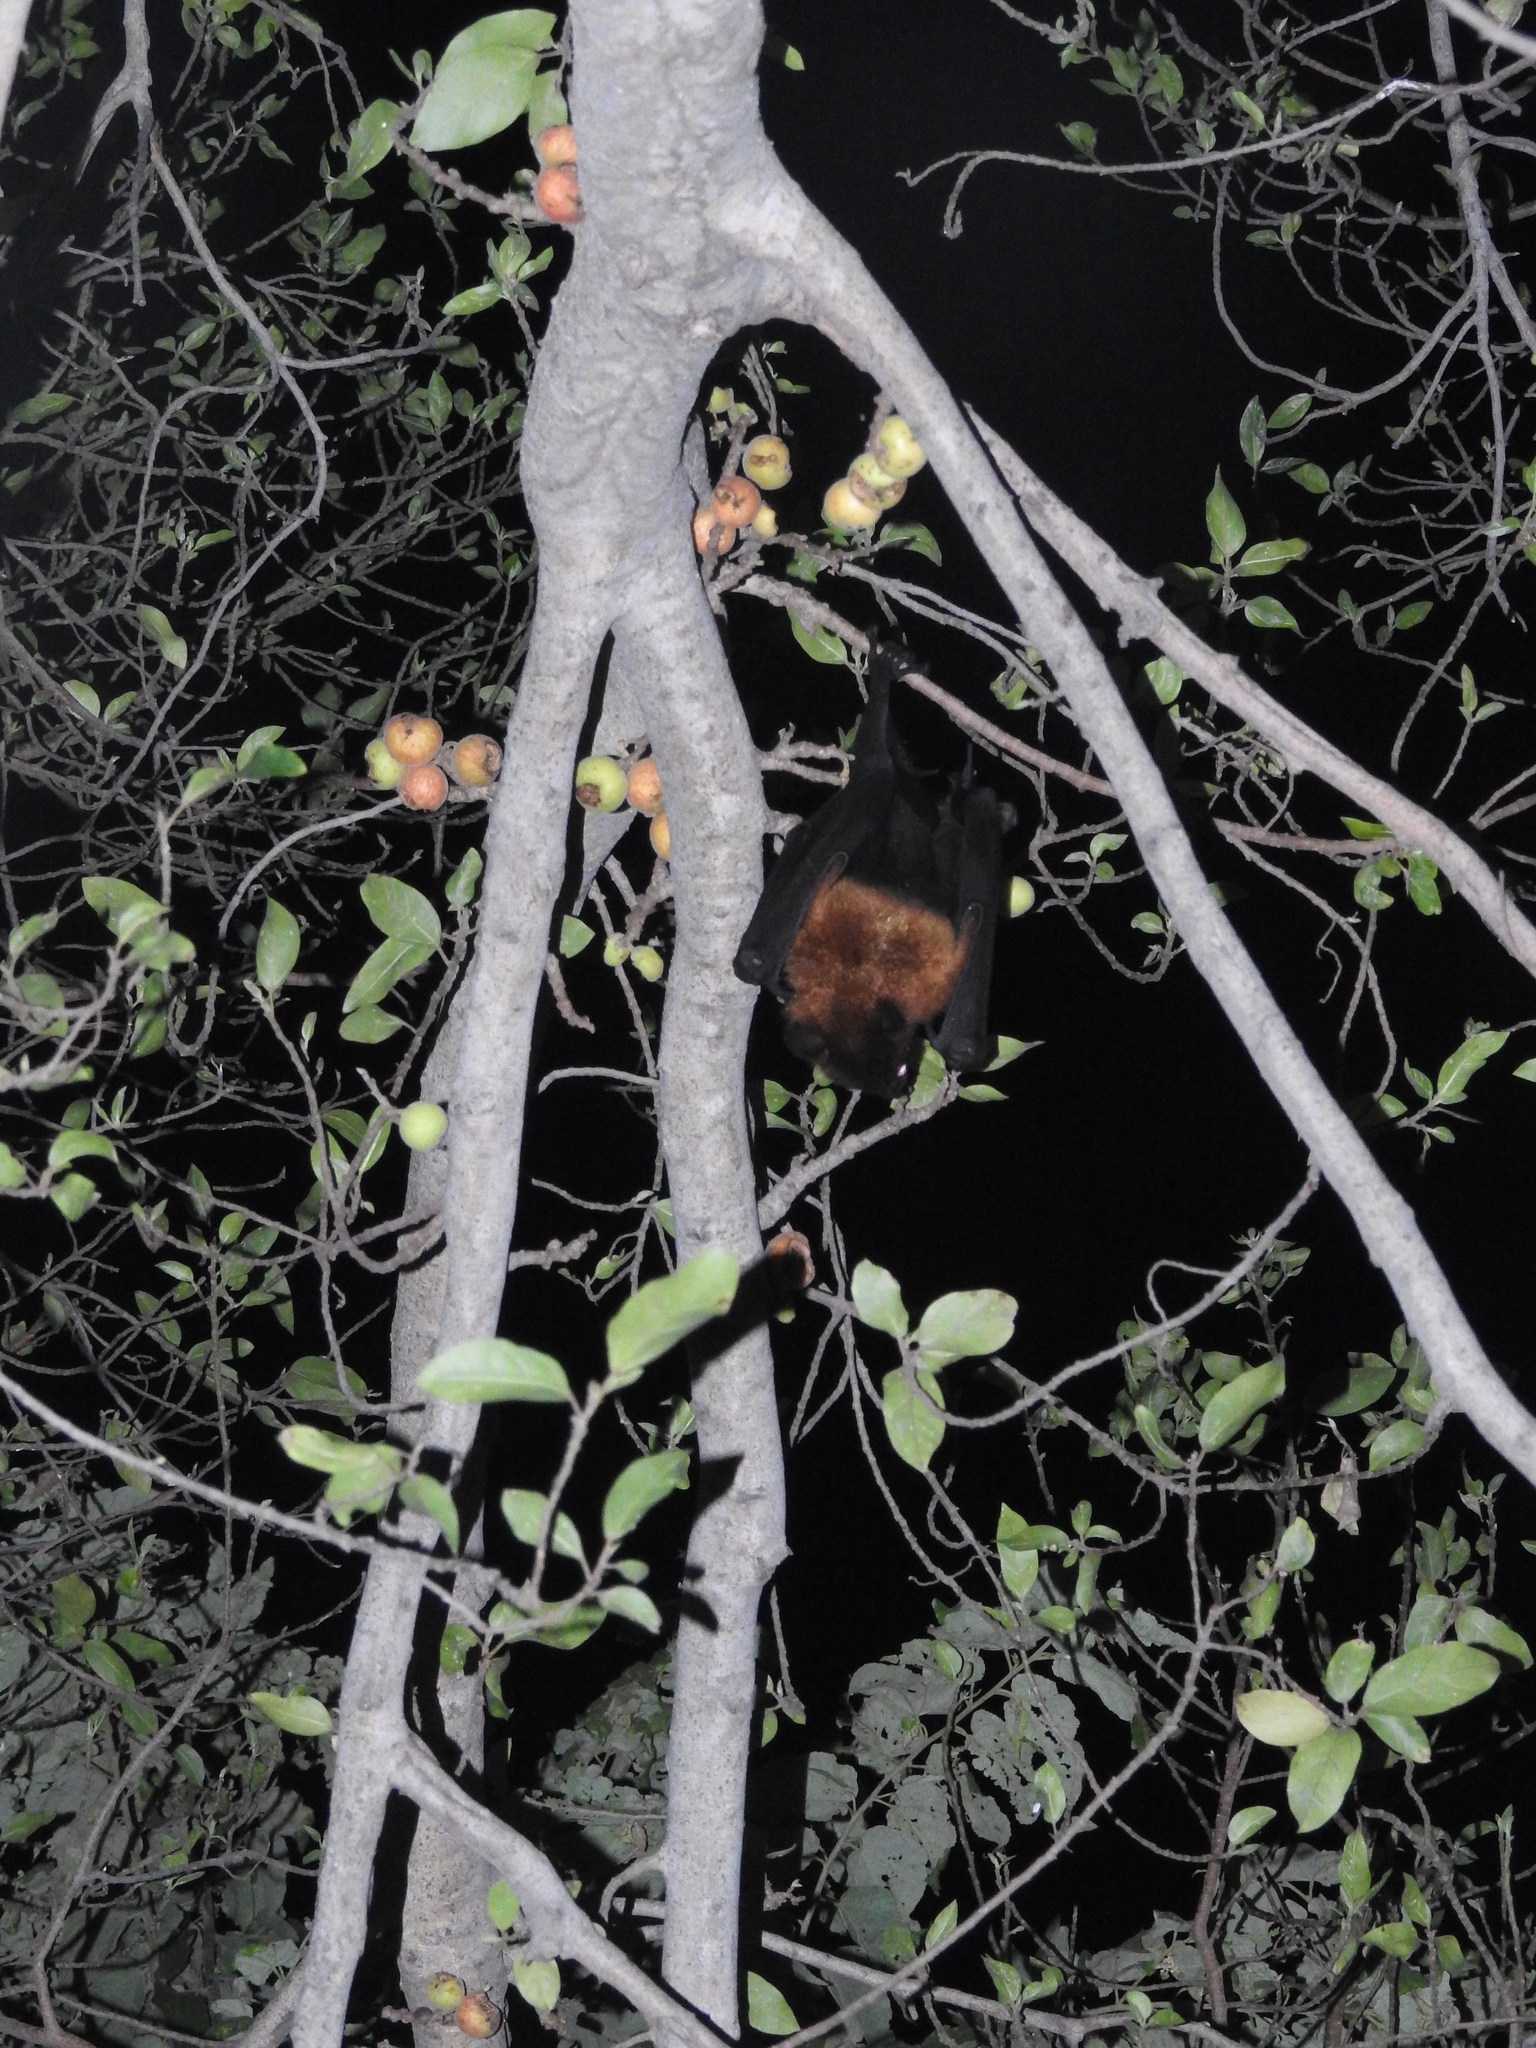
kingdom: Animalia
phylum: Chordata
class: Mammalia
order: Chiroptera
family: Pteropodidae
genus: Pteropus
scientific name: Pteropus vampyrus
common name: Large flying fox
